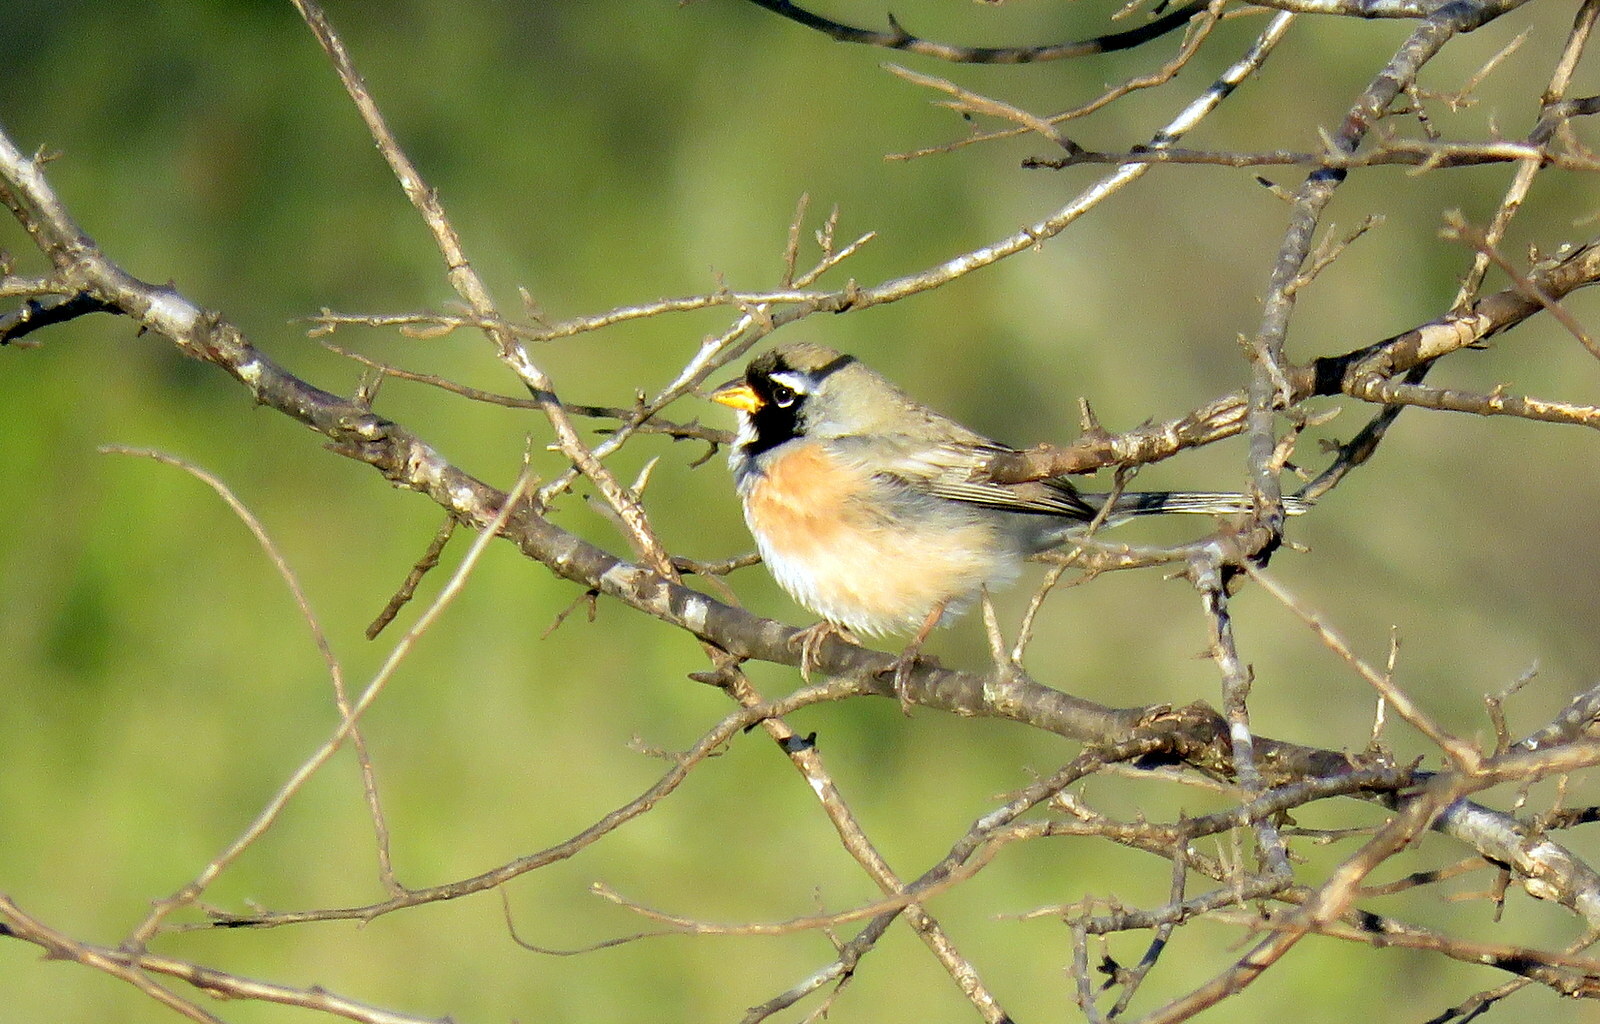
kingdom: Animalia
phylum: Chordata
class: Aves
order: Passeriformes
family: Thraupidae
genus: Saltatricula
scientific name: Saltatricula multicolor
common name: Many-colored chaco finch
